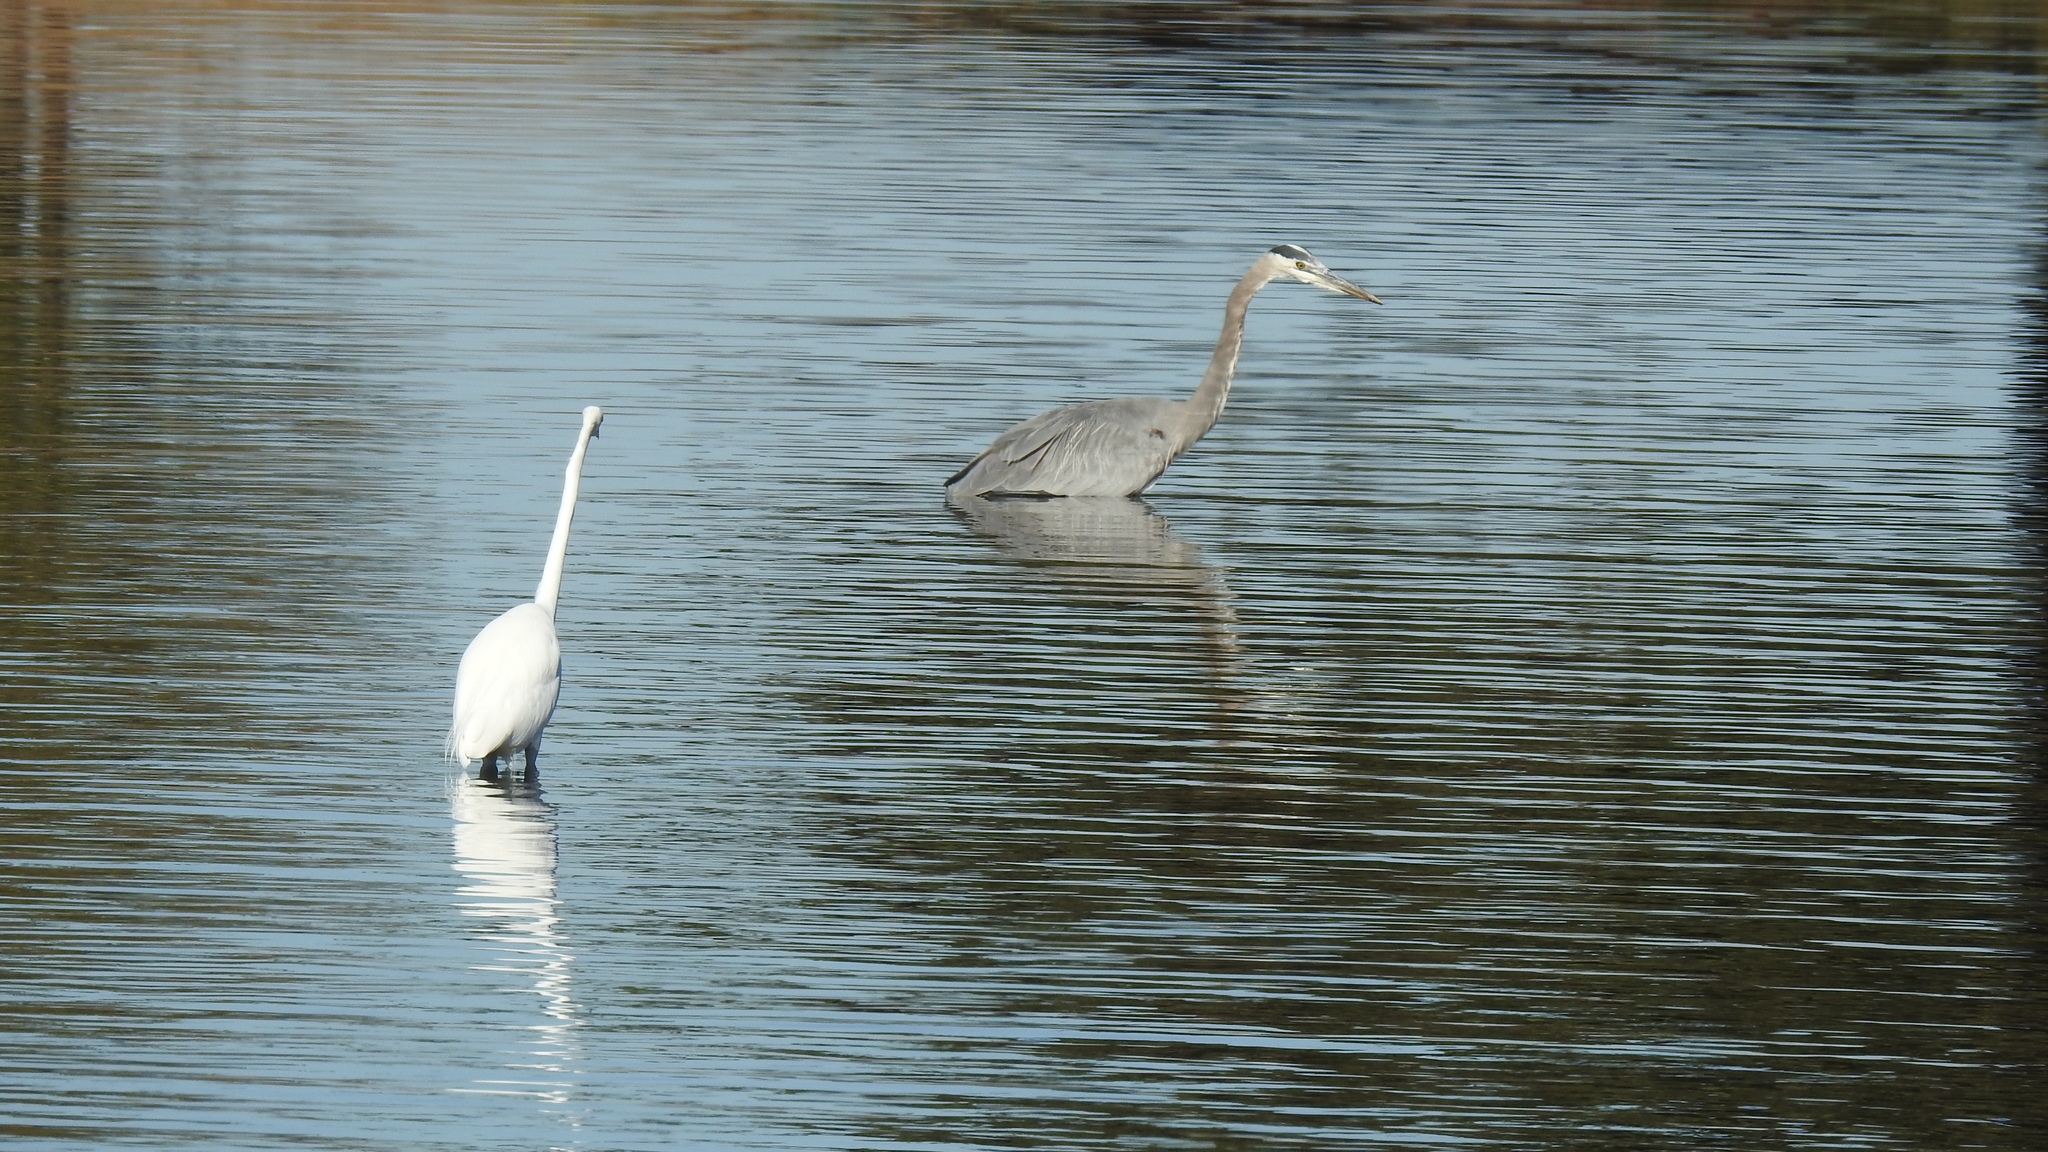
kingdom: Animalia
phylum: Chordata
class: Aves
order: Pelecaniformes
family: Ardeidae
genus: Ardea
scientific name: Ardea herodias
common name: Great blue heron
